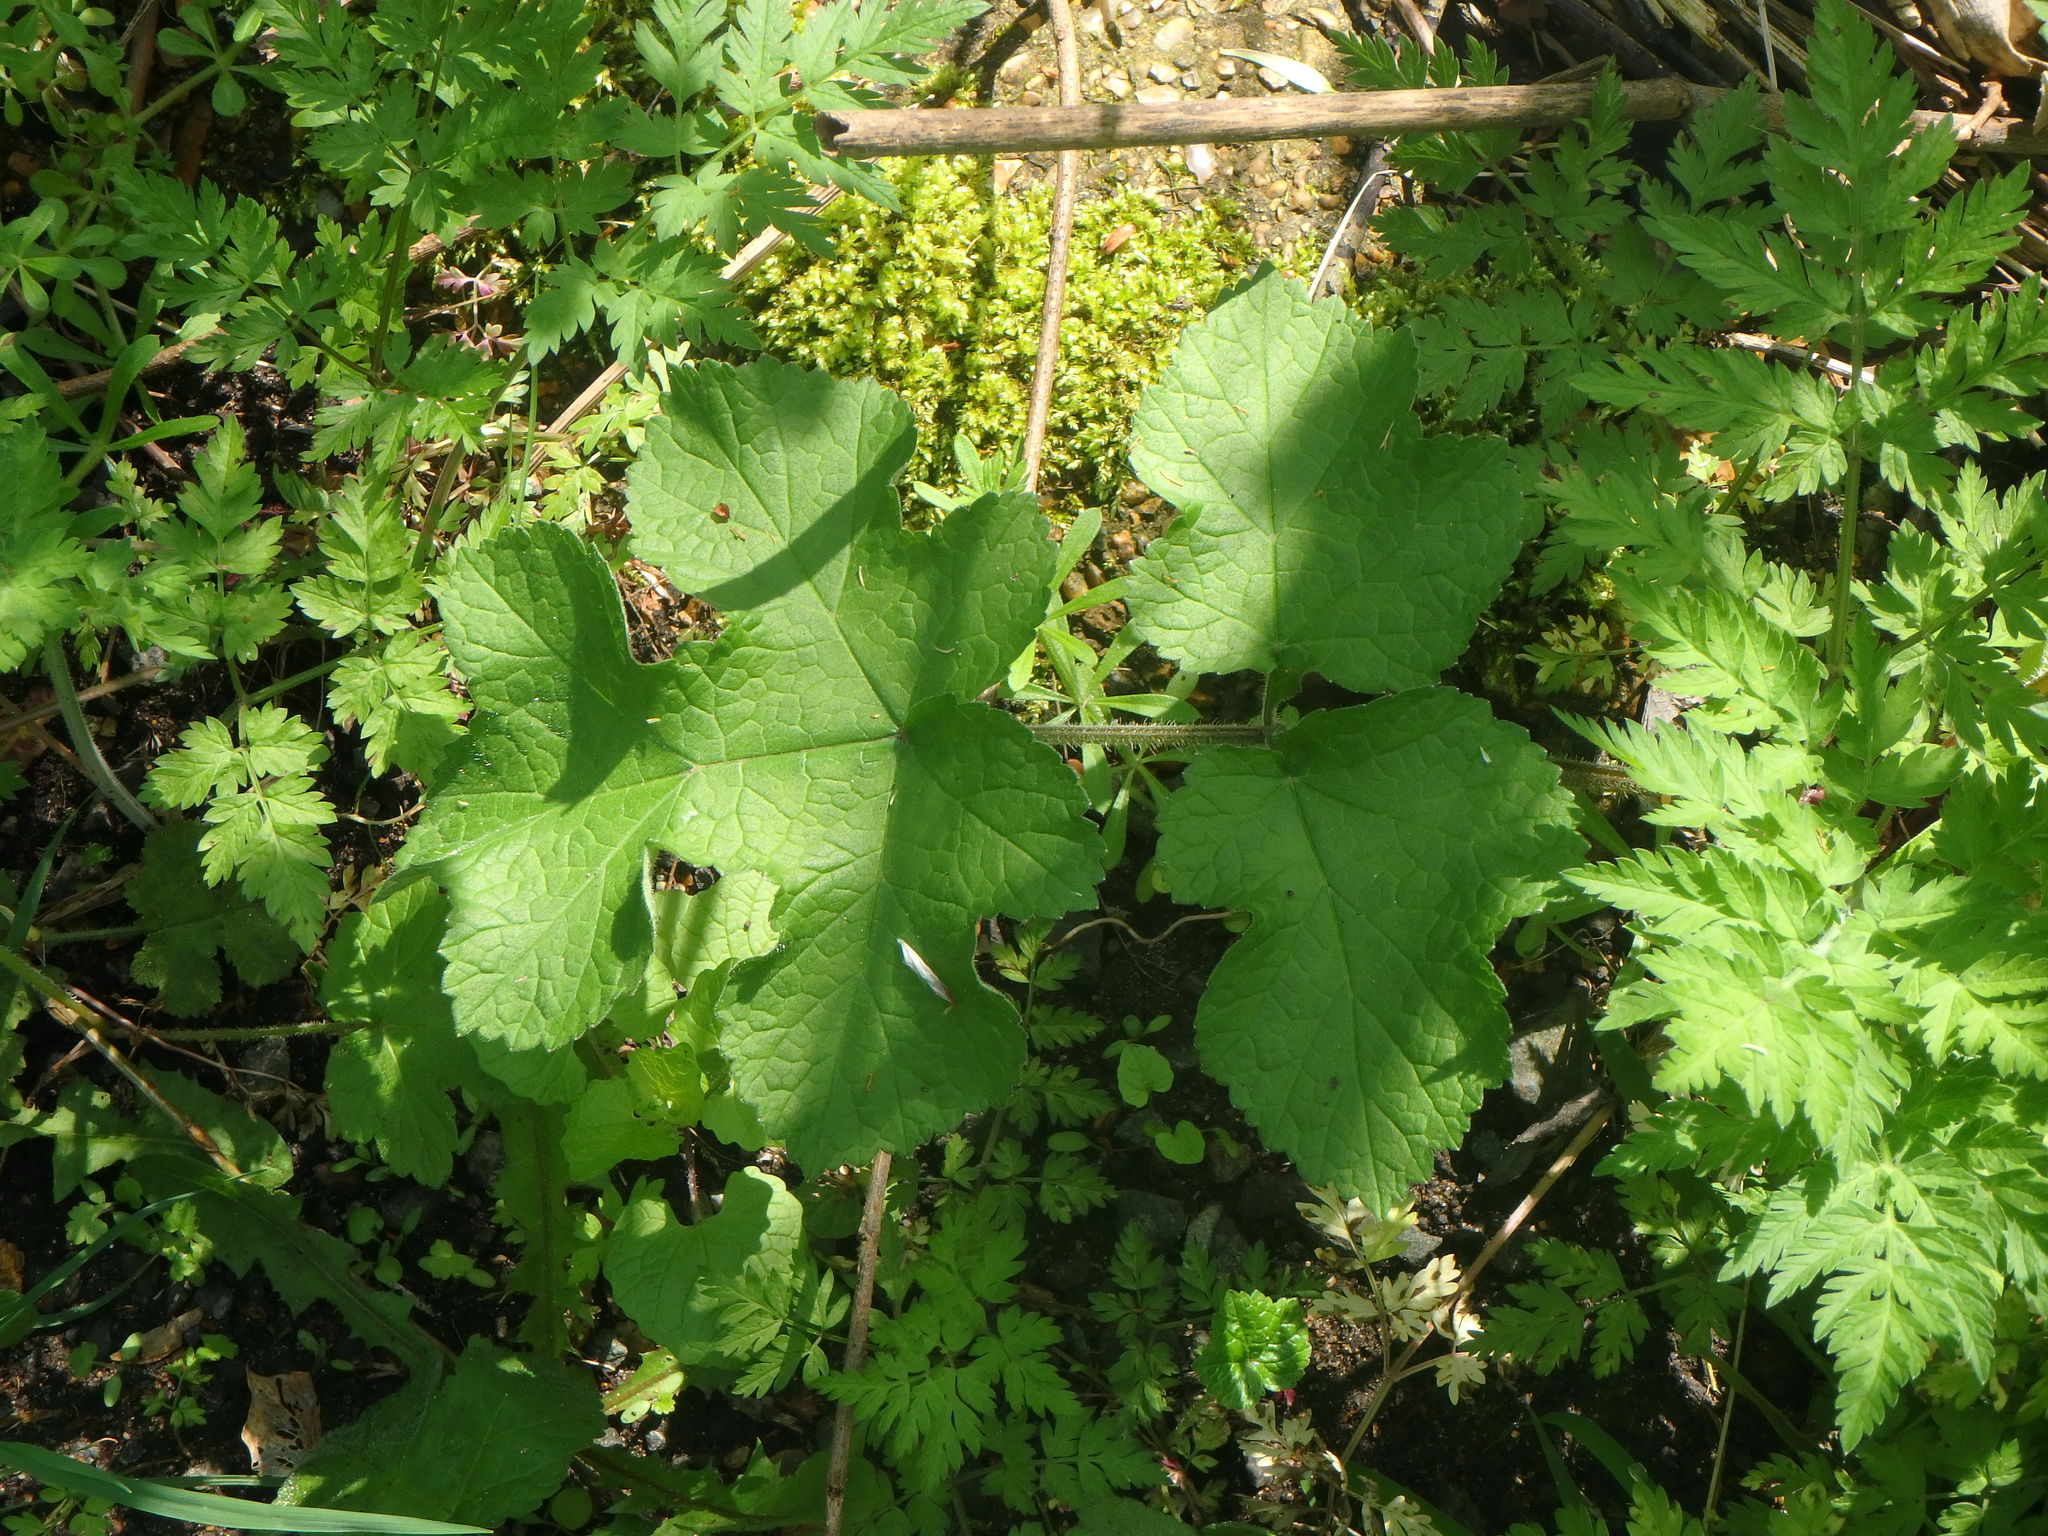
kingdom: Plantae
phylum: Tracheophyta
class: Magnoliopsida
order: Apiales
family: Apiaceae
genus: Heracleum
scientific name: Heracleum sphondylium
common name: Hogweed
